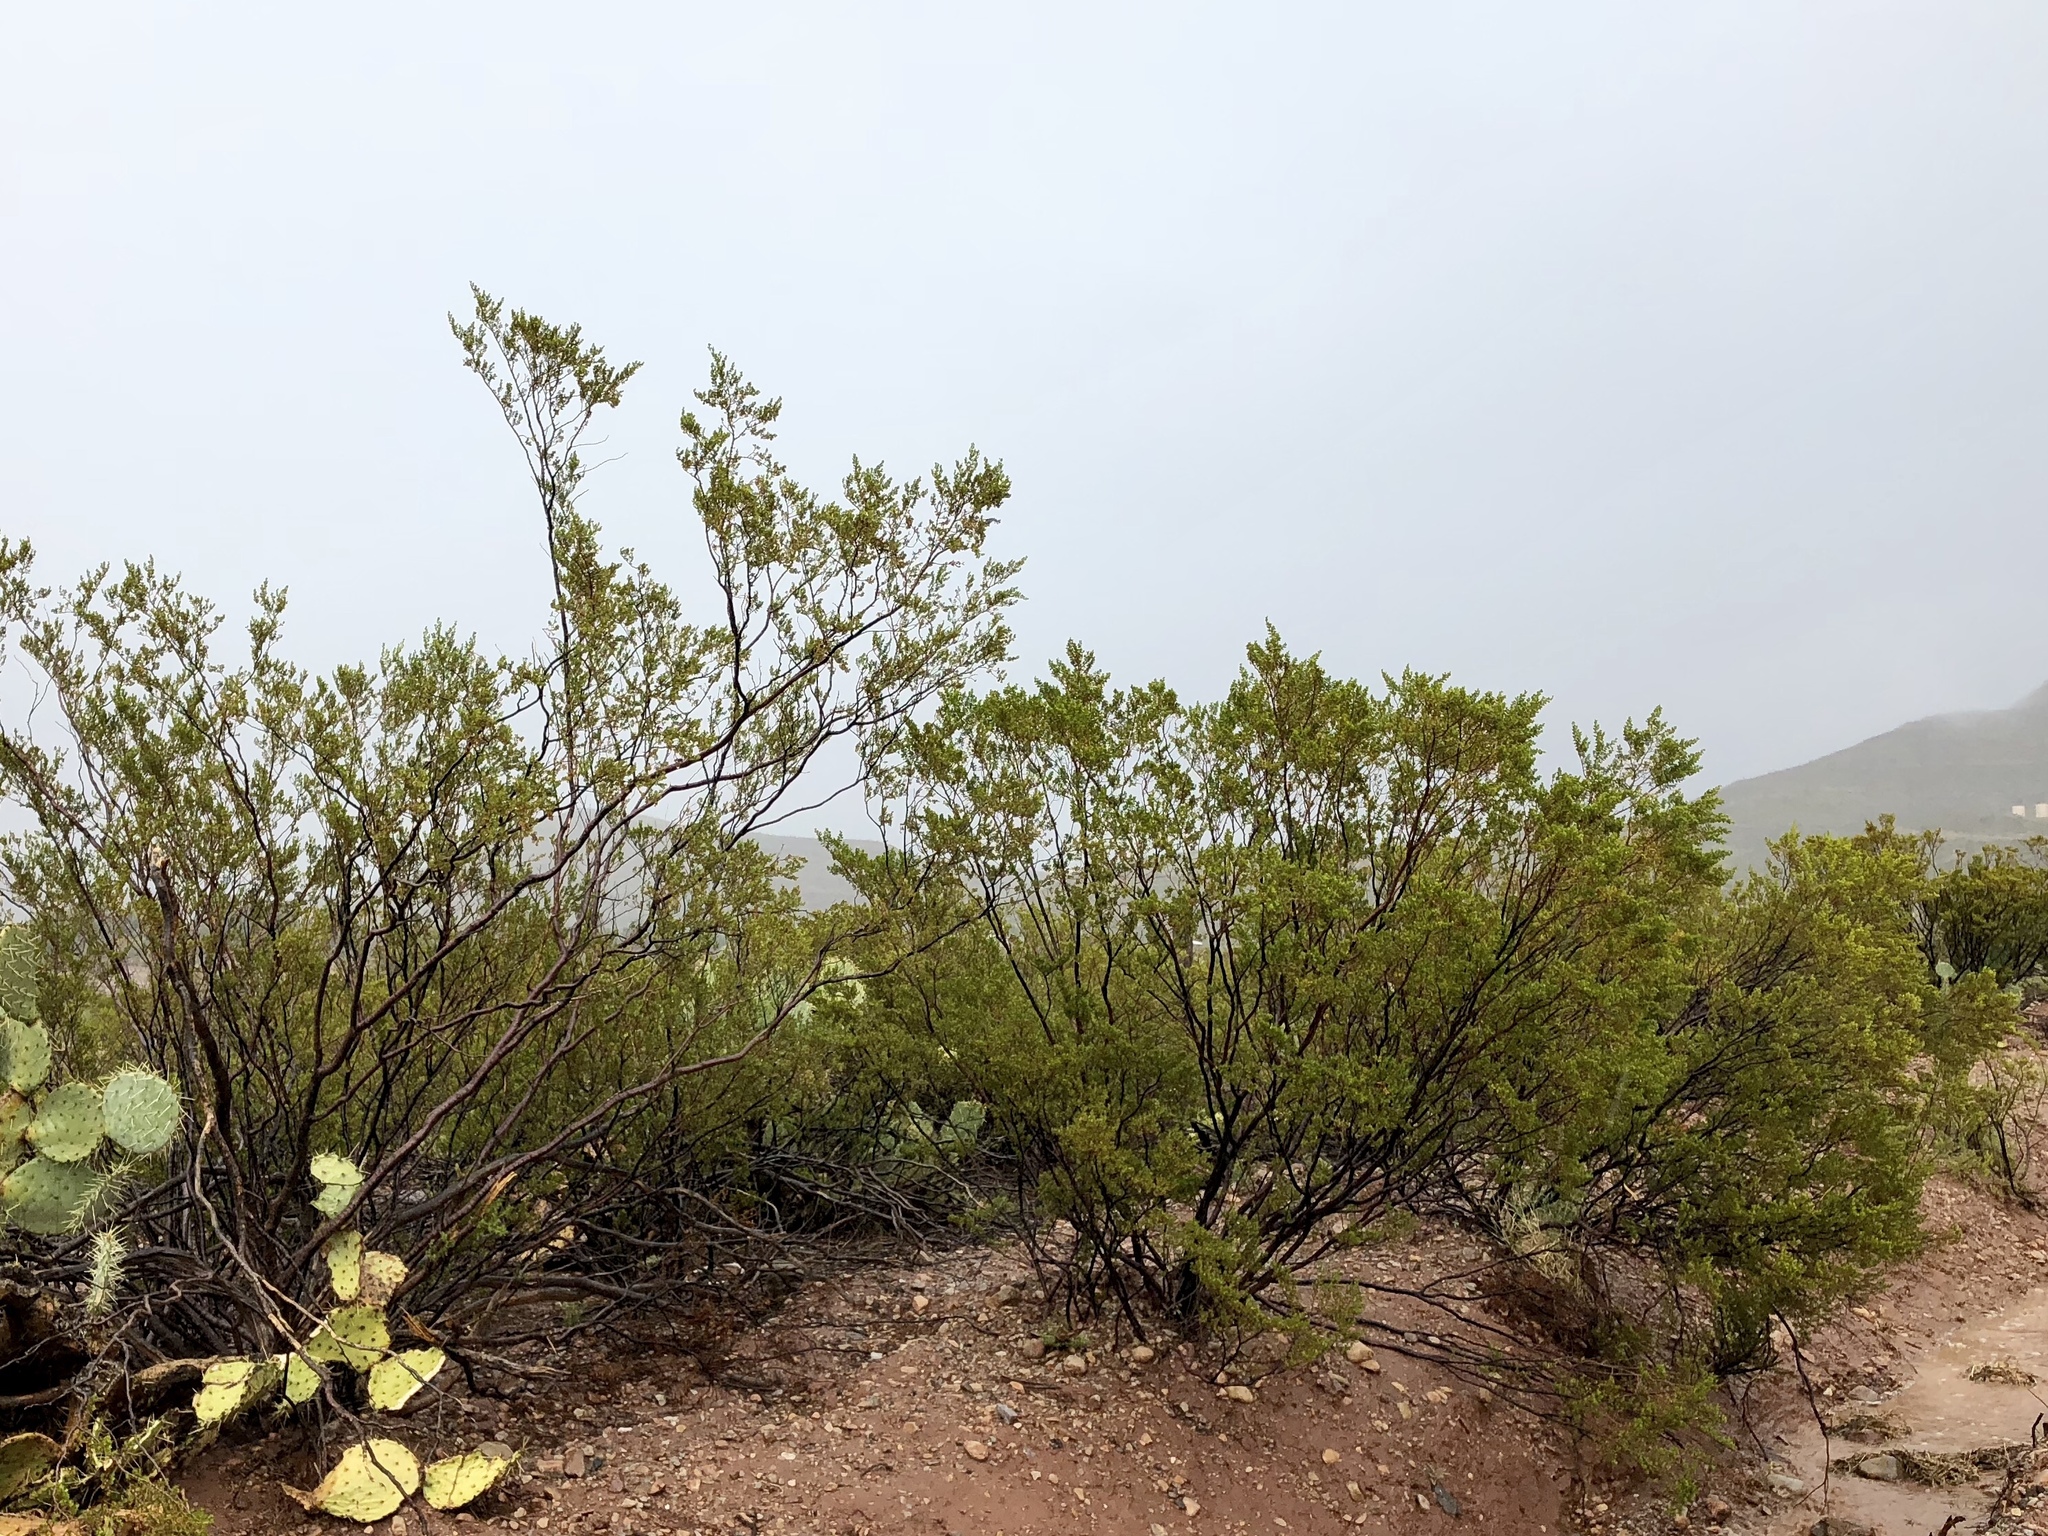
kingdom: Plantae
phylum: Tracheophyta
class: Magnoliopsida
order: Zygophyllales
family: Zygophyllaceae
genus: Larrea
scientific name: Larrea tridentata
